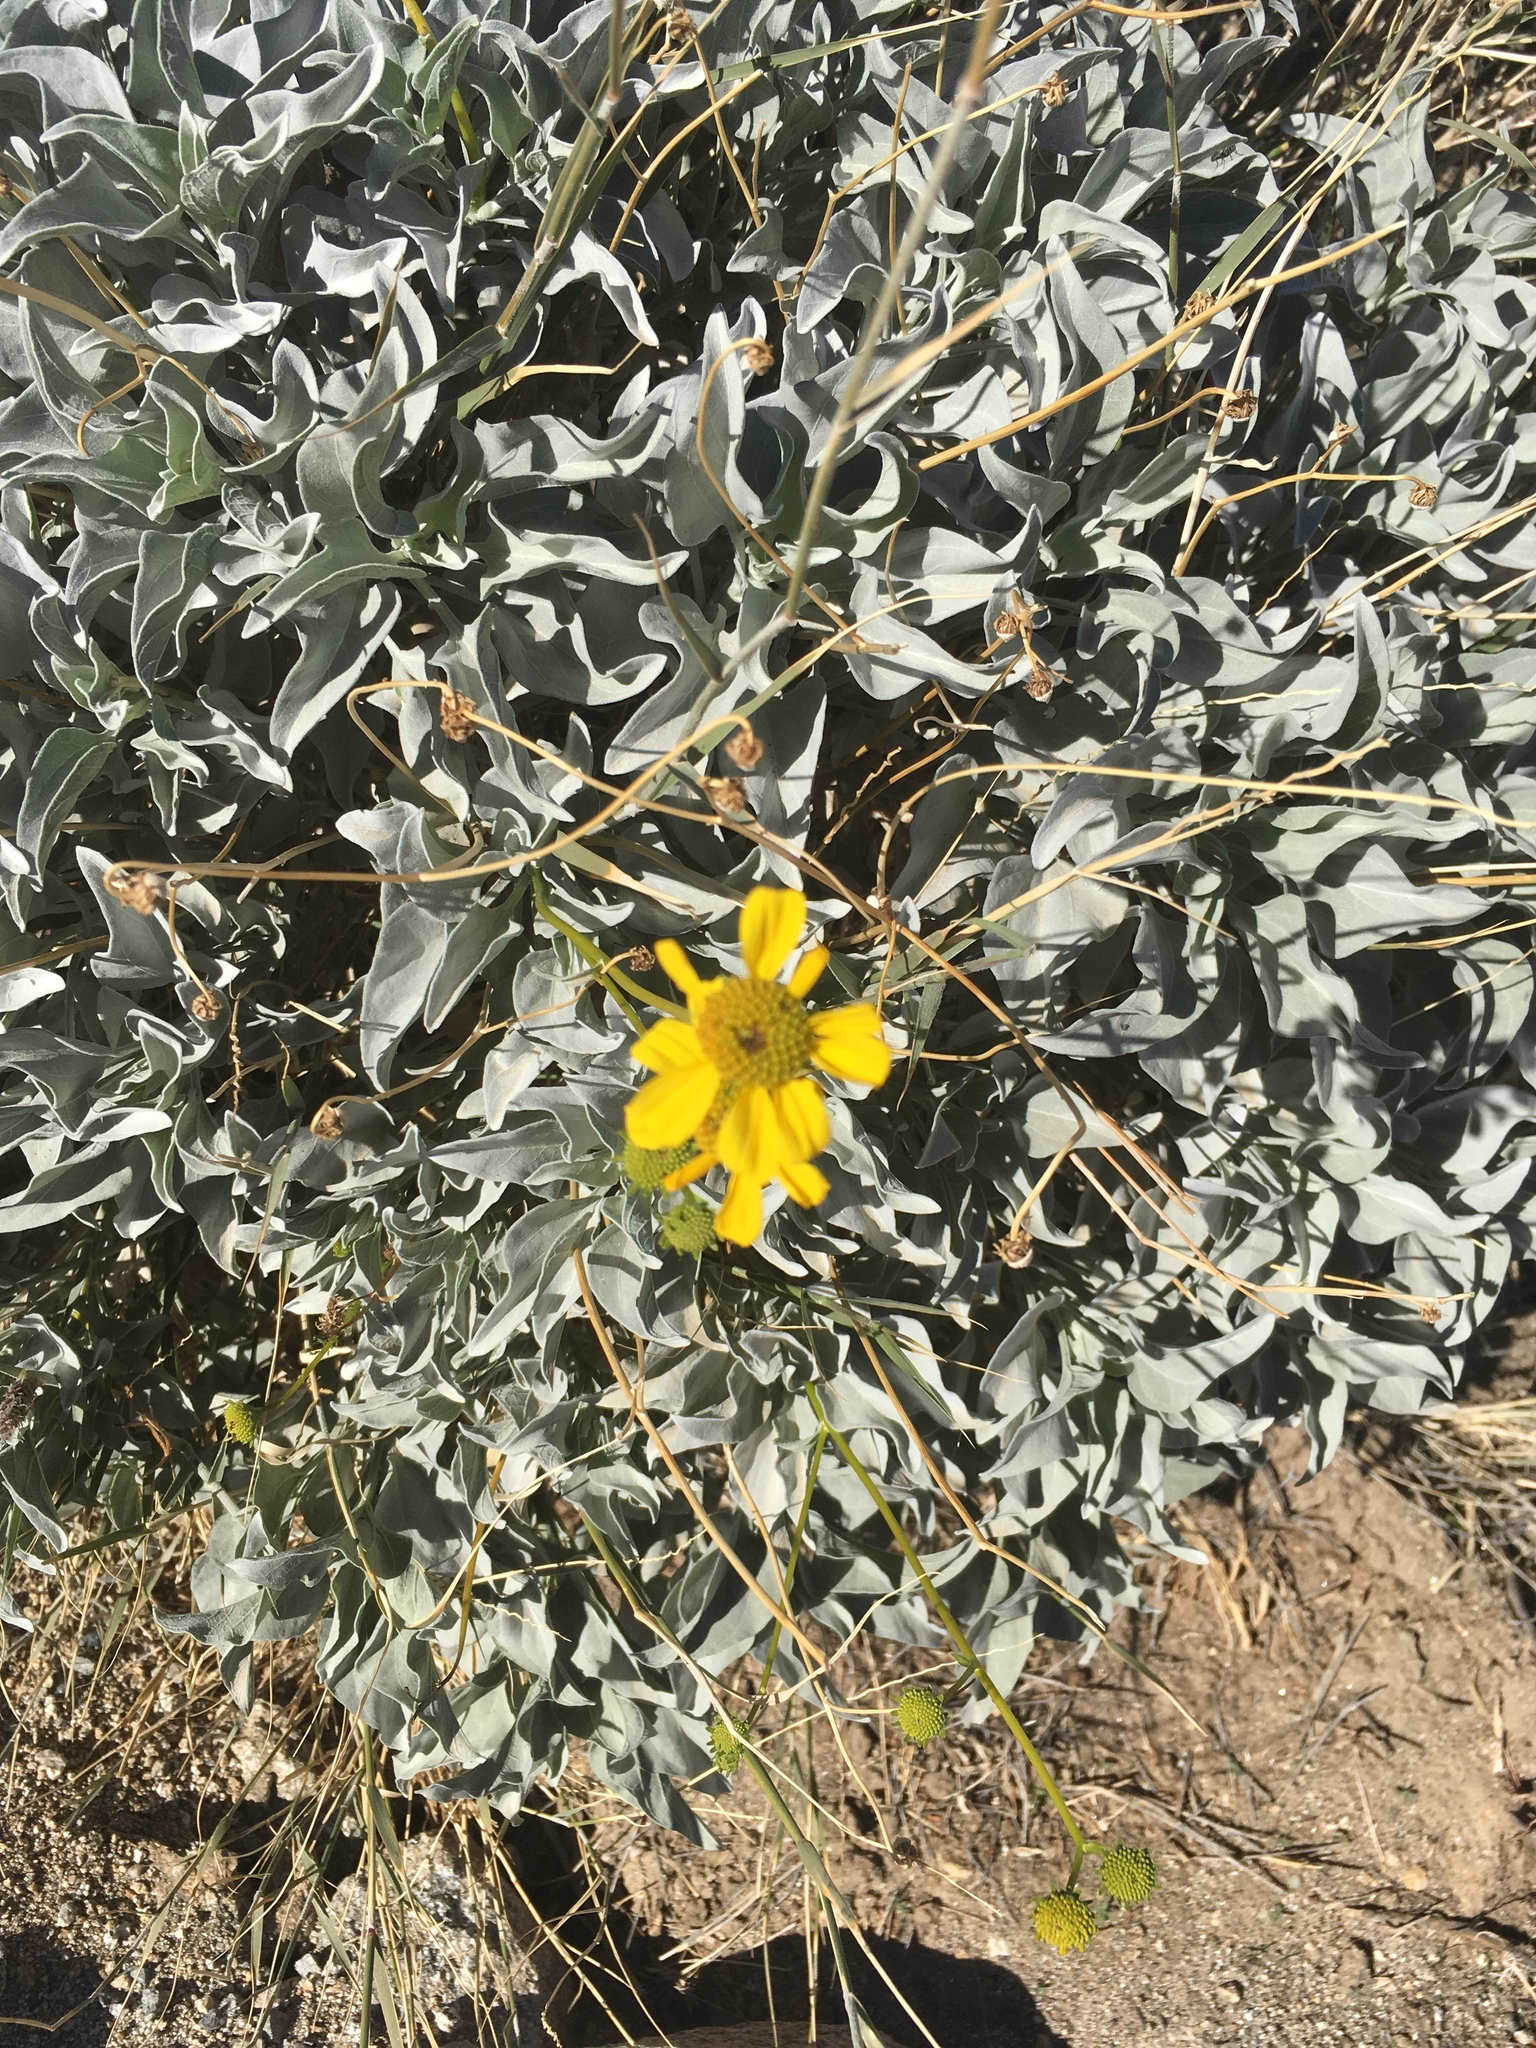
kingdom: Plantae
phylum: Tracheophyta
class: Magnoliopsida
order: Asterales
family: Asteraceae
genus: Encelia
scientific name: Encelia farinosa
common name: Brittlebush
